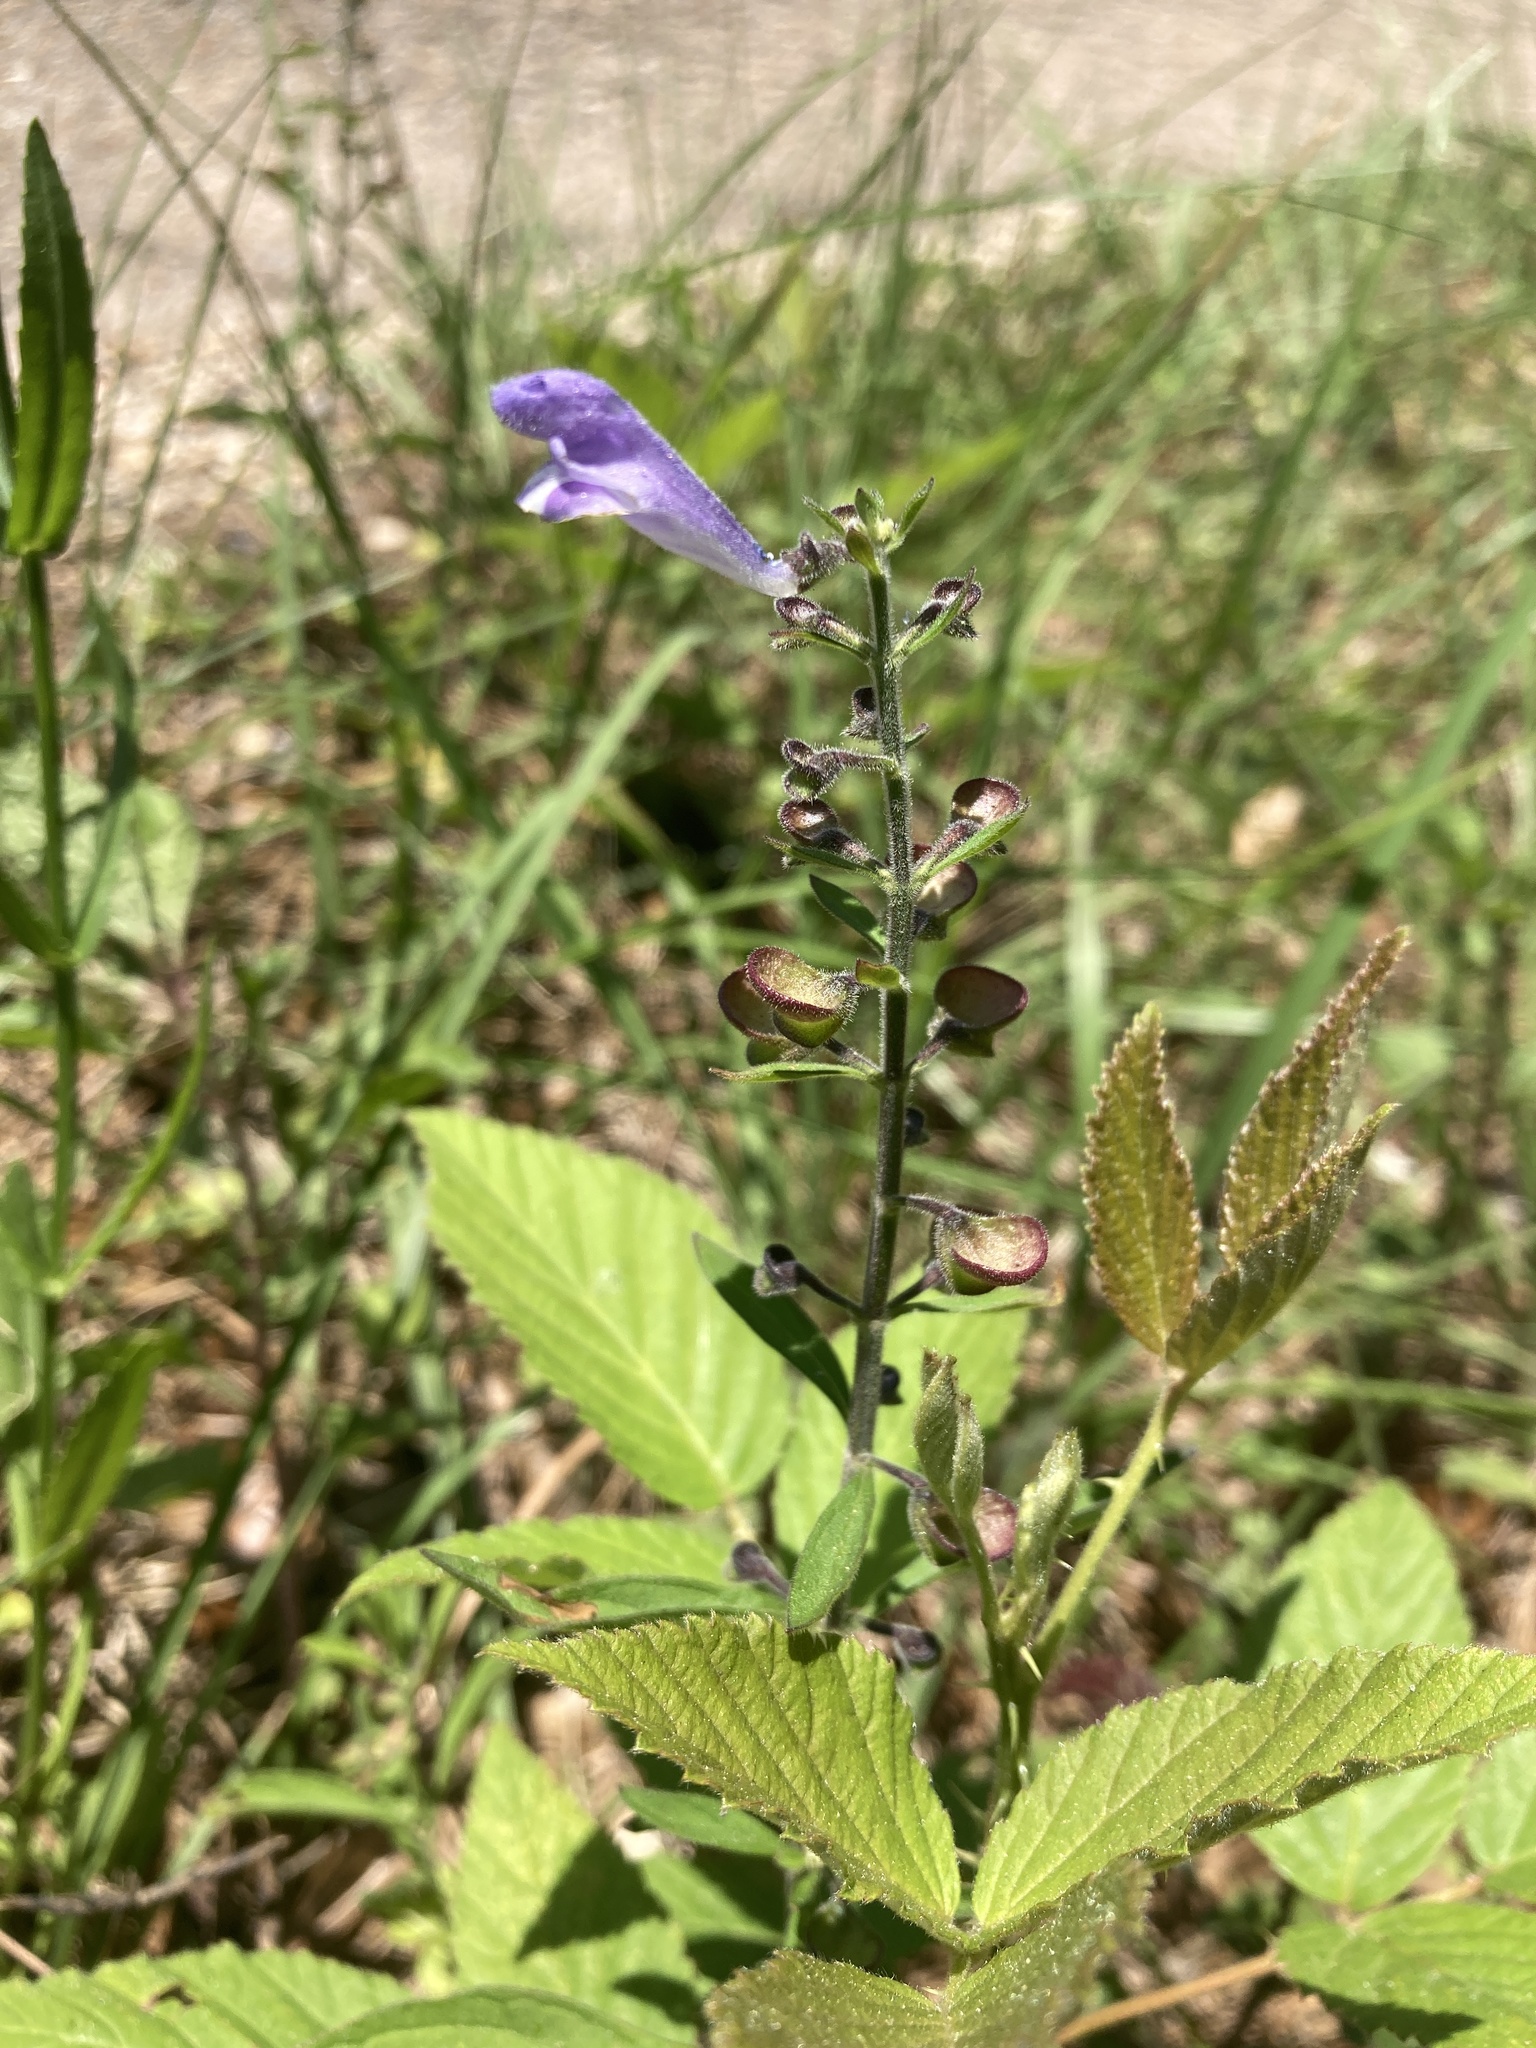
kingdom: Plantae
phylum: Tracheophyta
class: Magnoliopsida
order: Lamiales
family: Lamiaceae
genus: Scutellaria
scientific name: Scutellaria integrifolia
